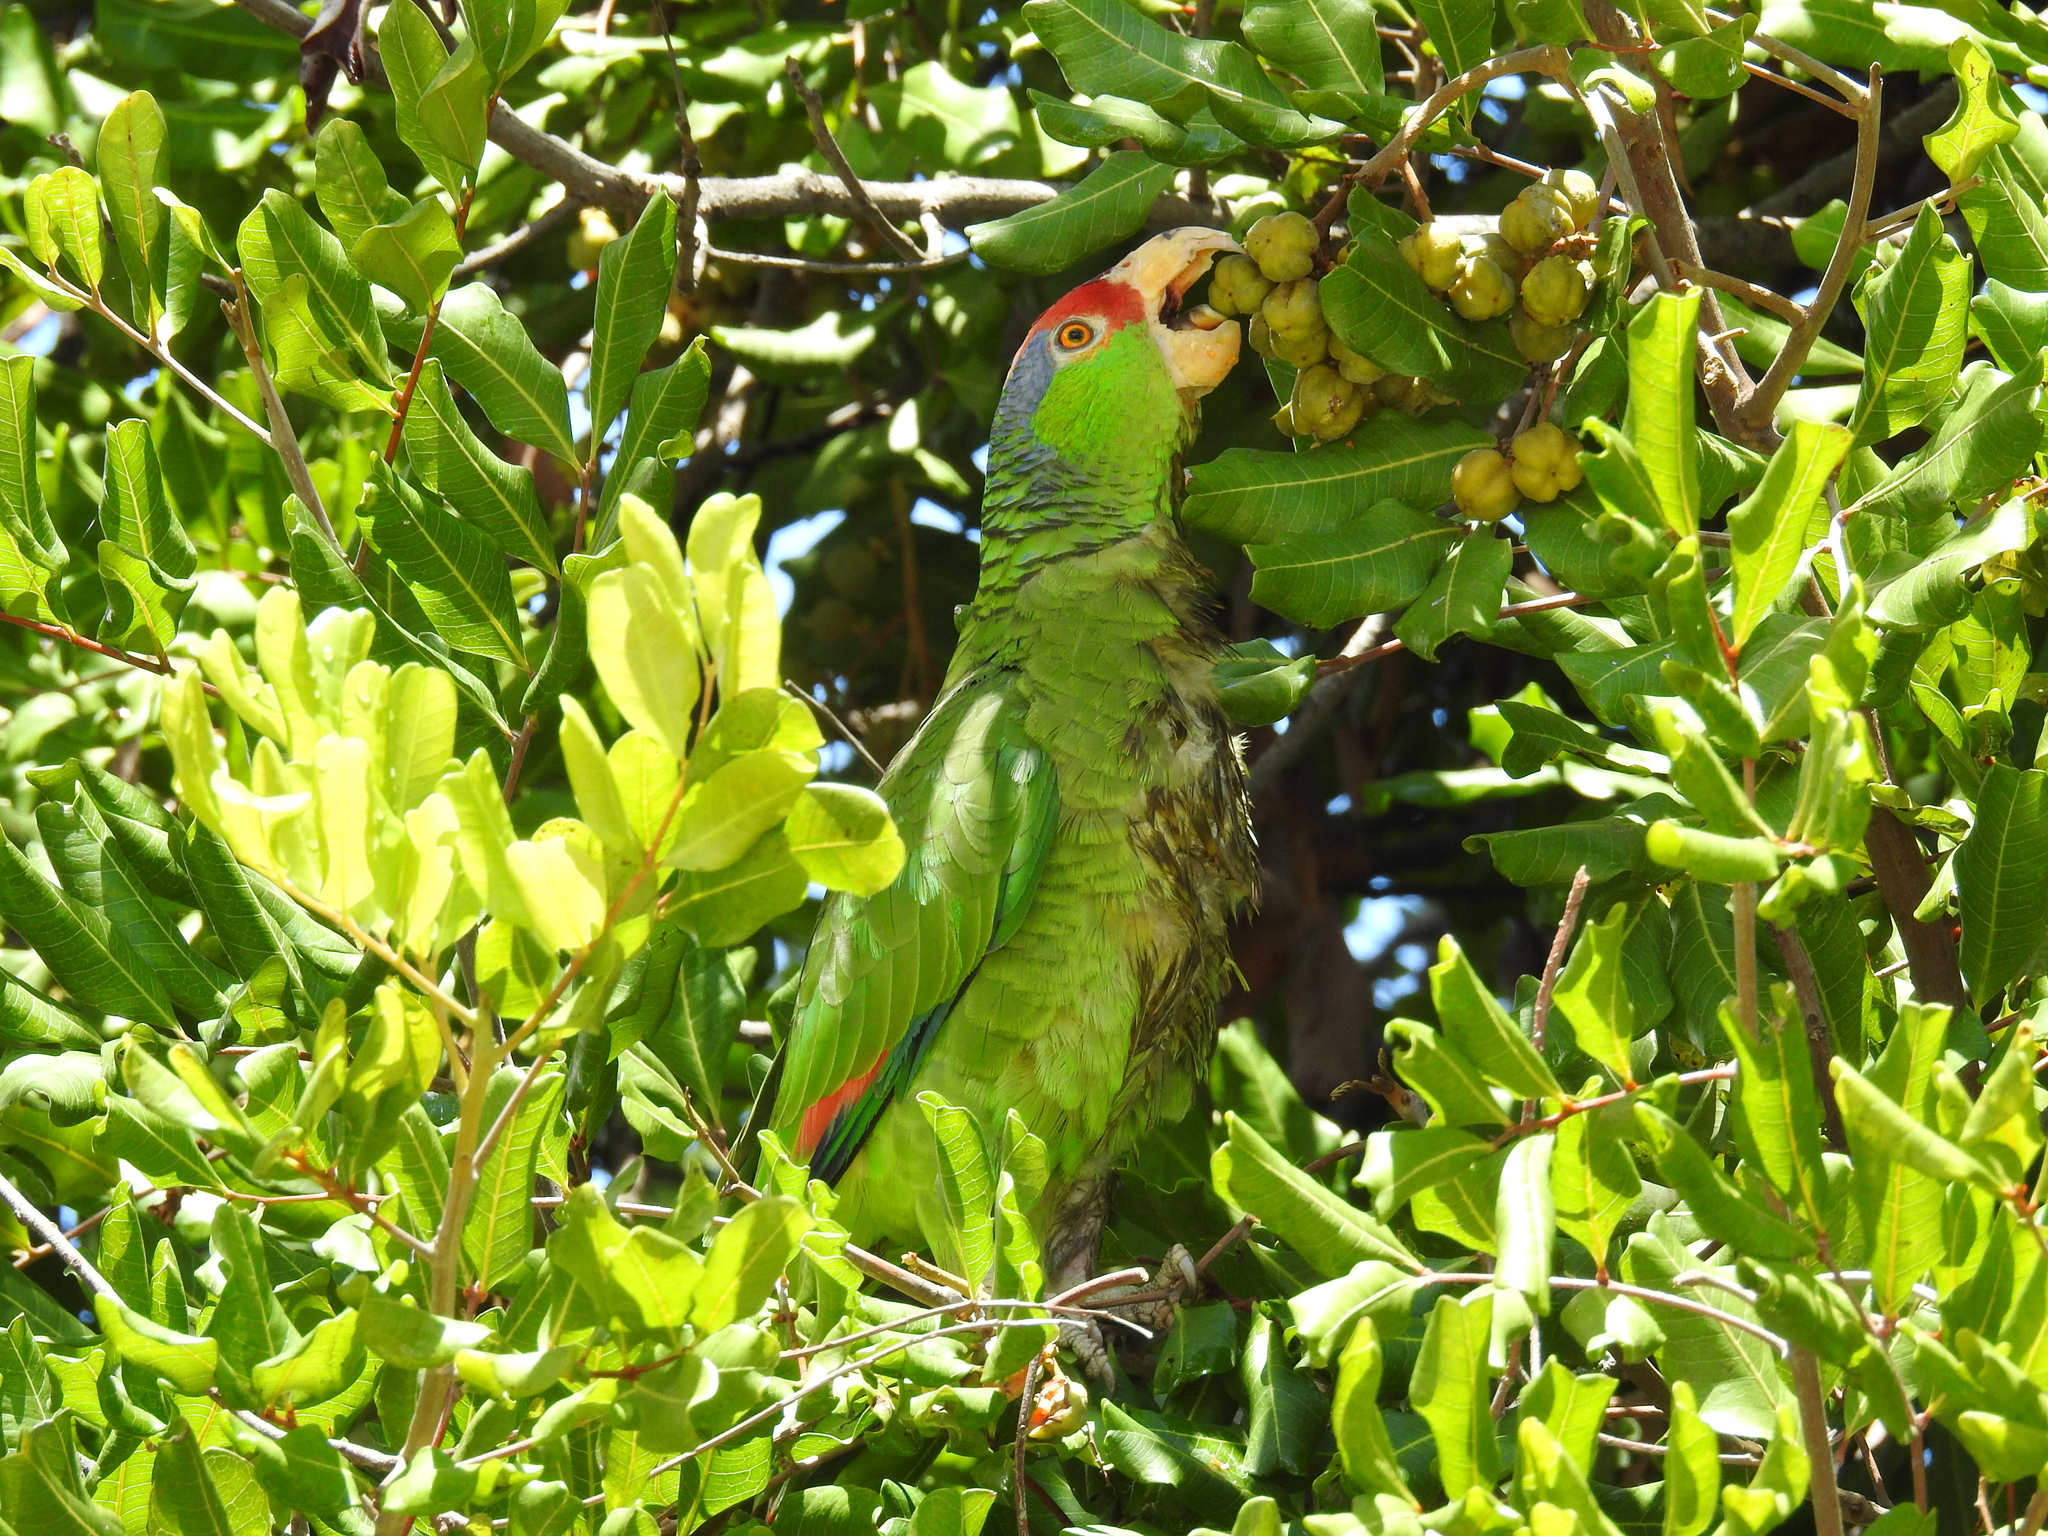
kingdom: Animalia
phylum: Chordata
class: Aves
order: Psittaciformes
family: Psittacidae
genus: Amazona
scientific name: Amazona viridigenalis
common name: Red-crowned amazon
